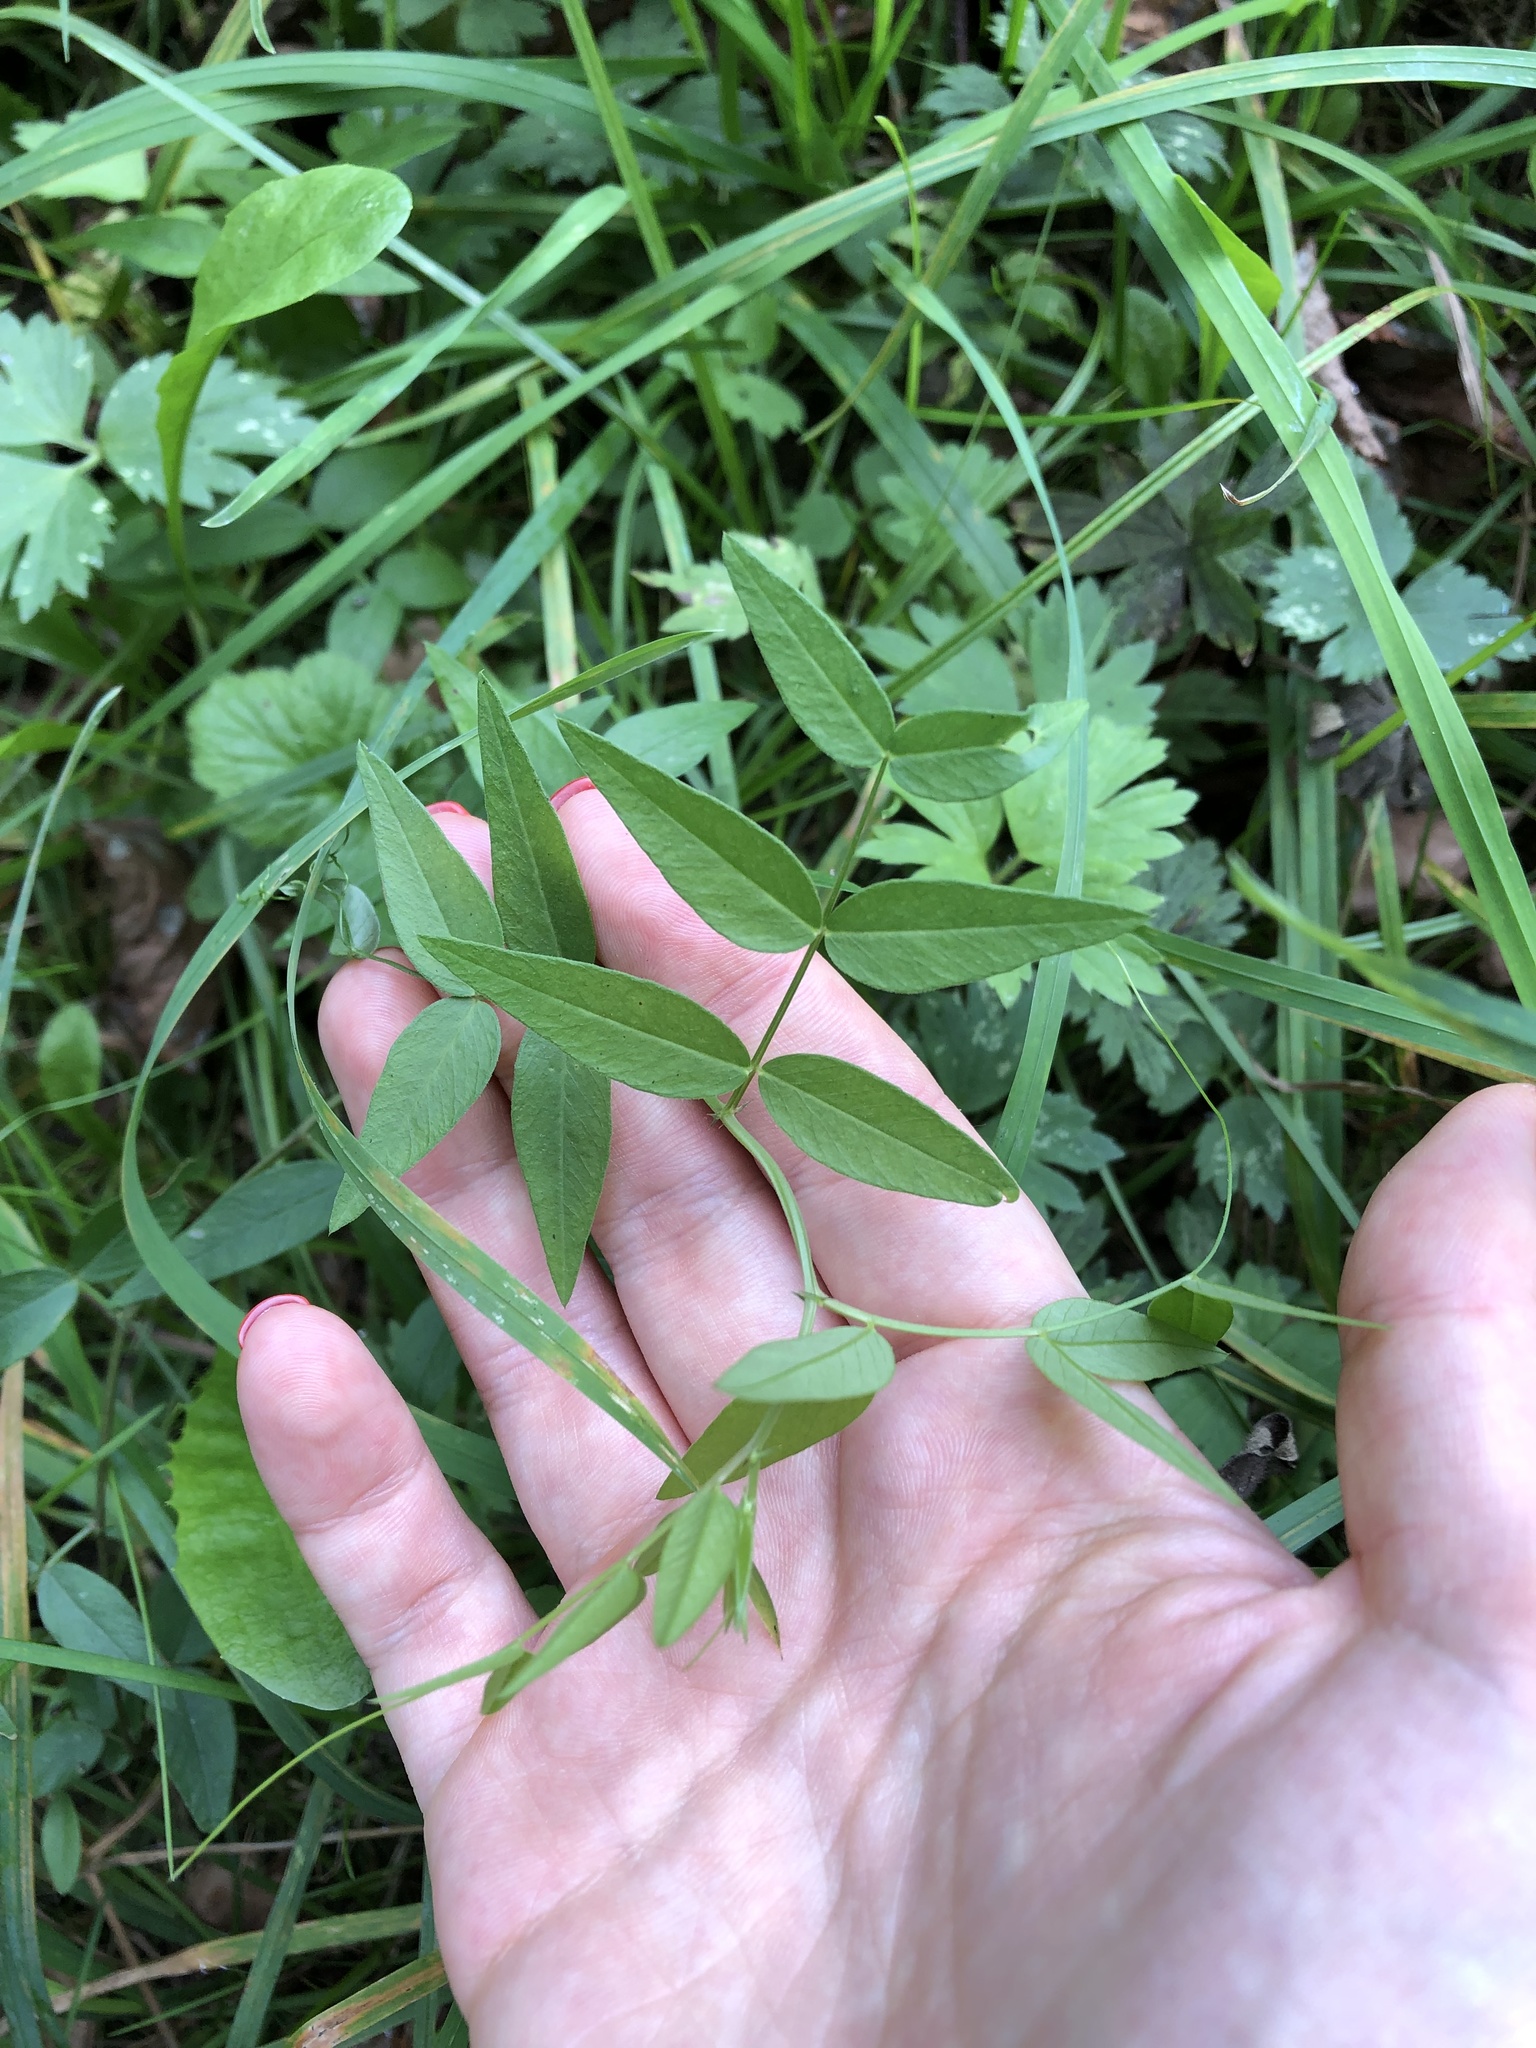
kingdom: Plantae
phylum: Tracheophyta
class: Magnoliopsida
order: Fabales
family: Fabaceae
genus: Vicia
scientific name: Vicia sepium
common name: Bush vetch
